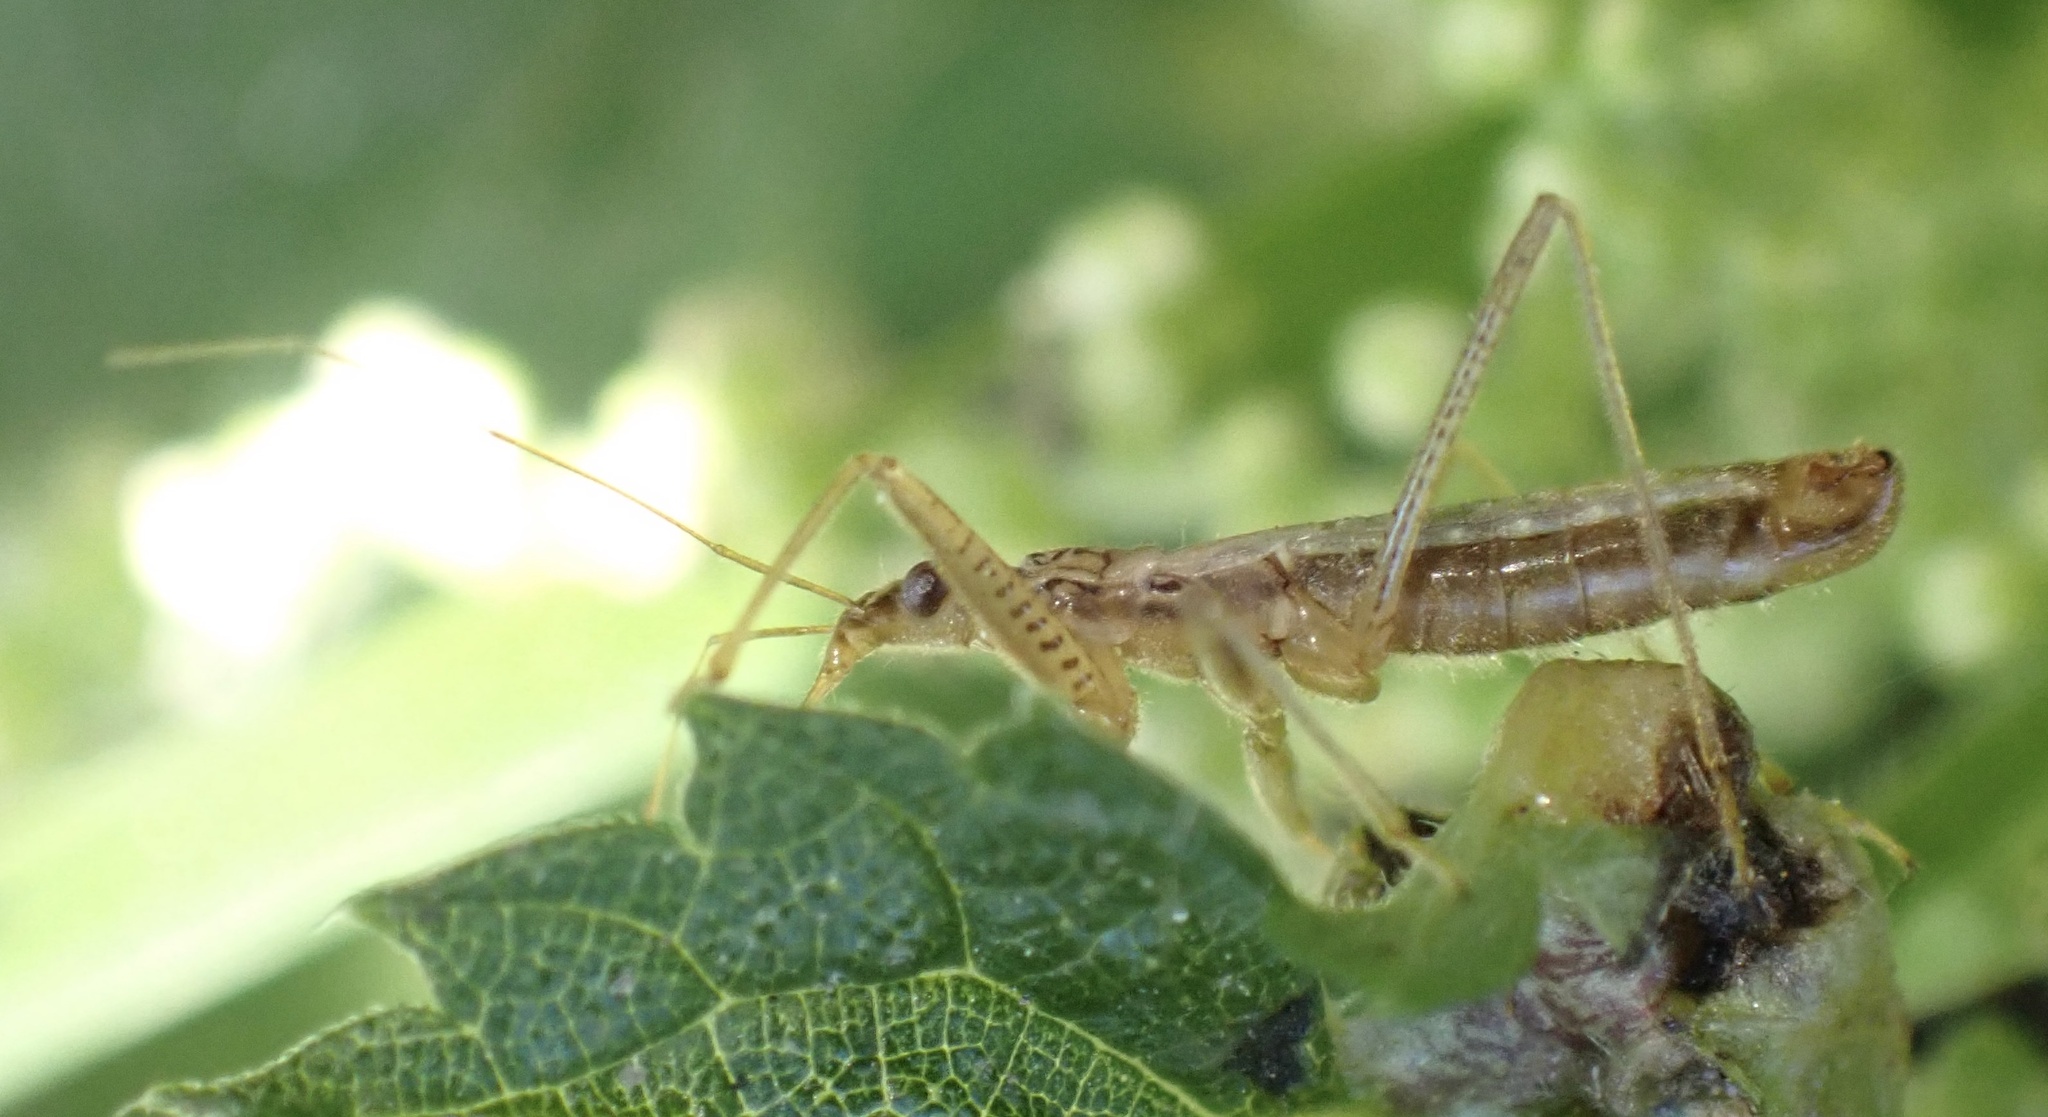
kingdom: Animalia
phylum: Arthropoda
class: Insecta
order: Hemiptera
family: Nabidae
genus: Nabis
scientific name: Nabis limbatus
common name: Marsh damselbug
